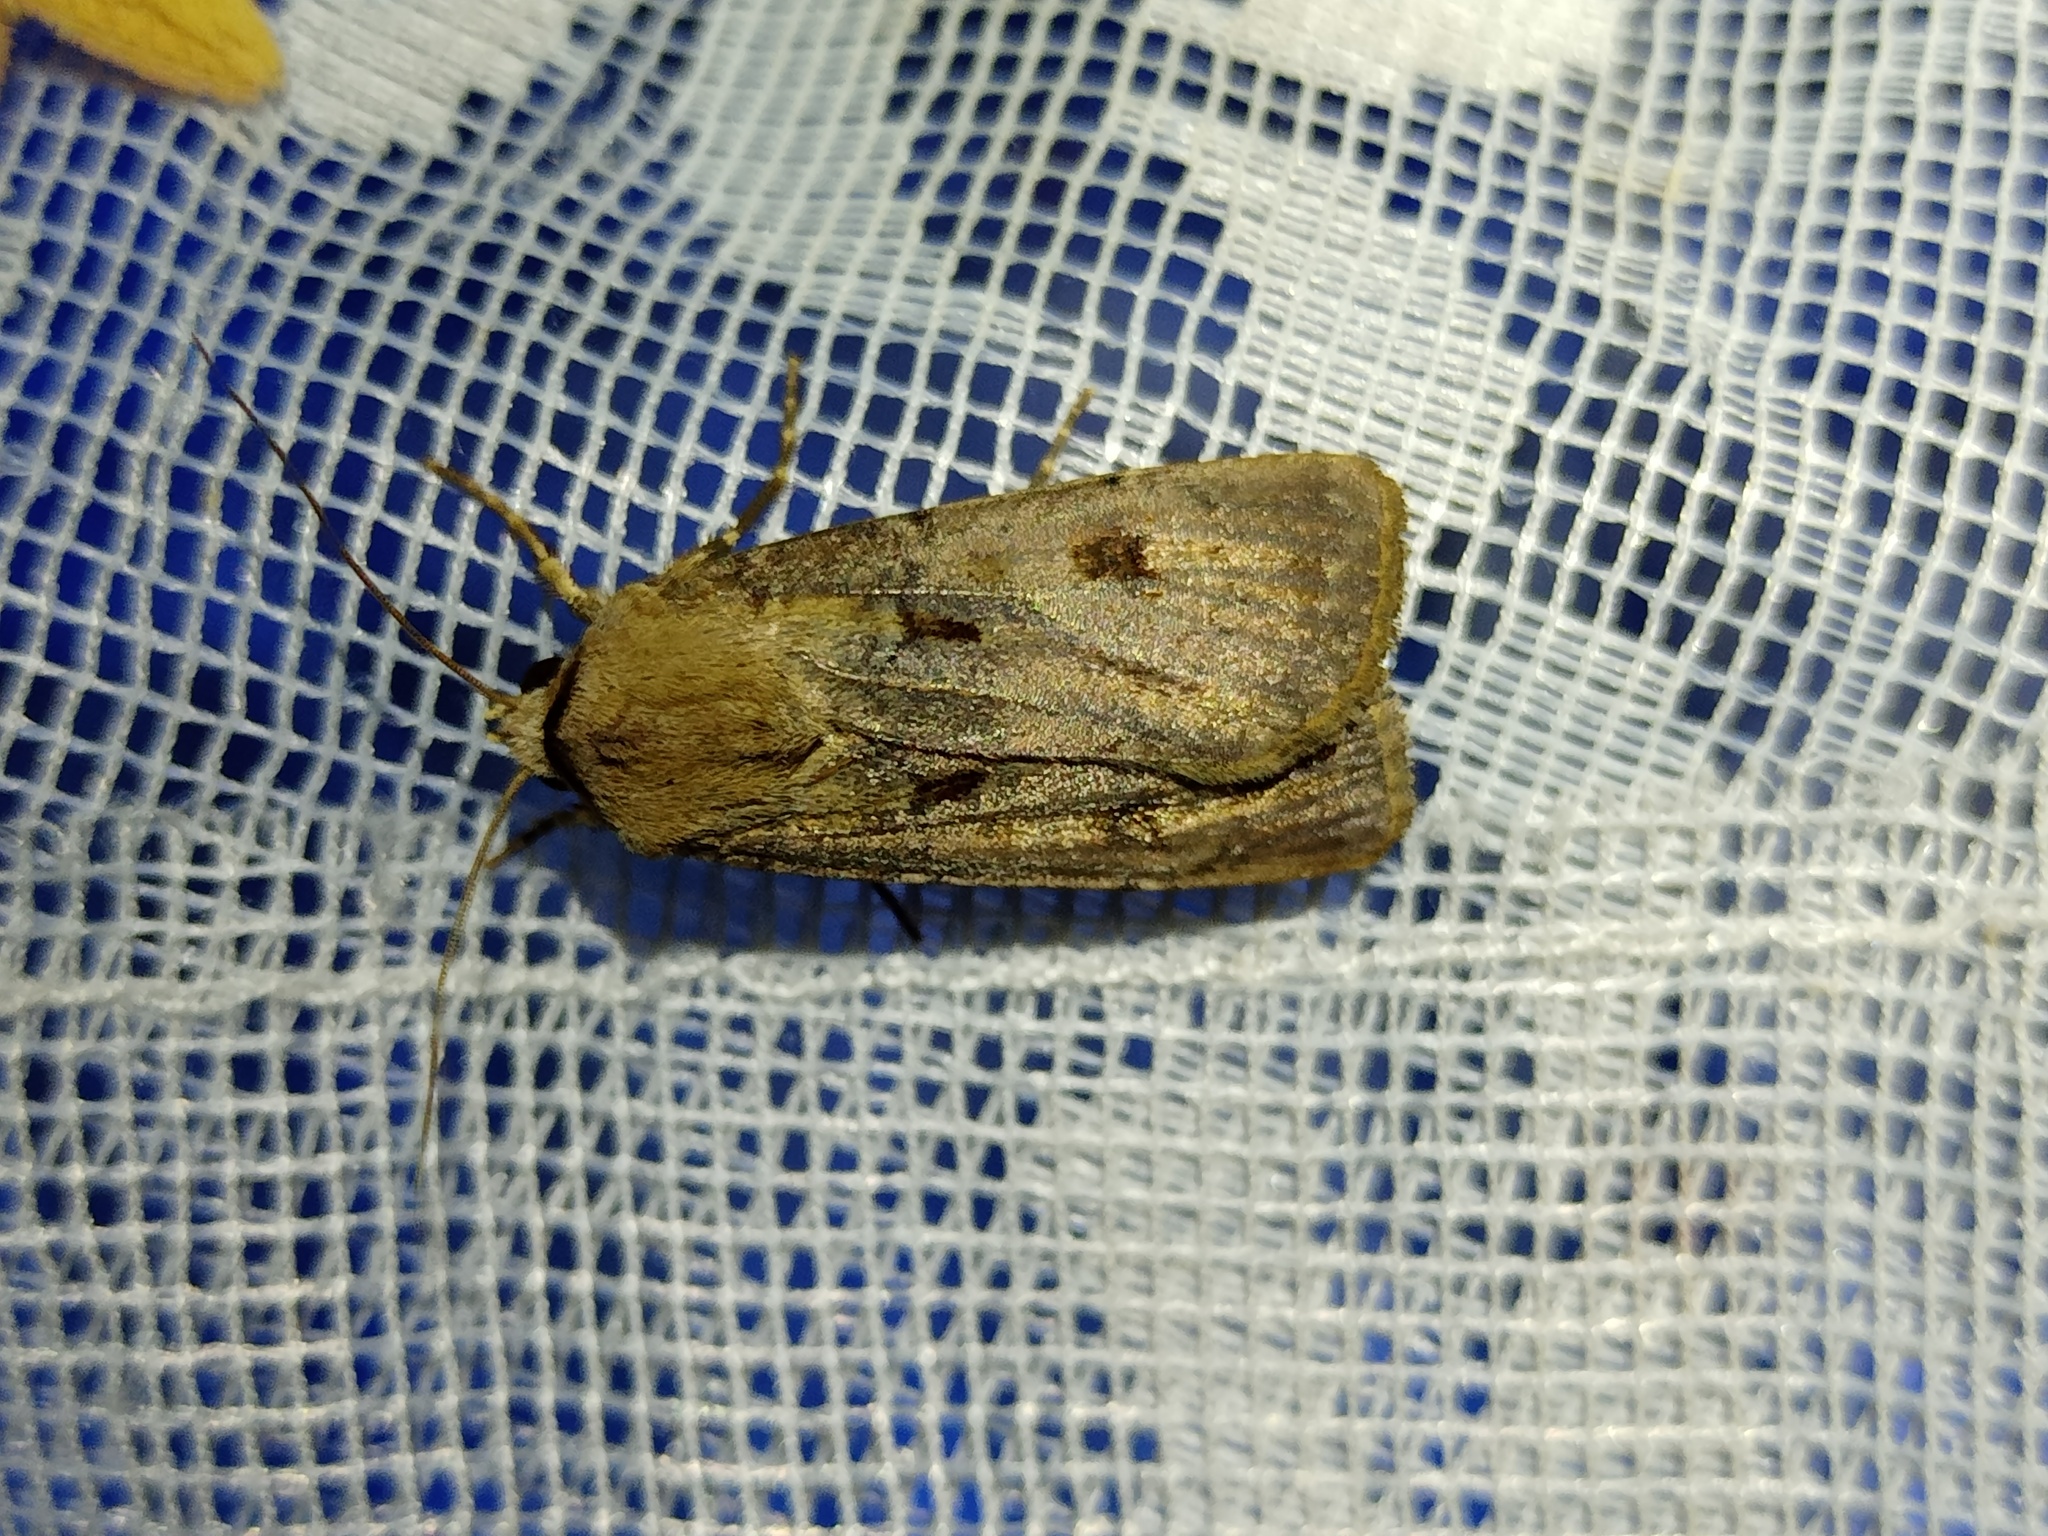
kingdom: Animalia
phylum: Arthropoda
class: Insecta
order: Lepidoptera
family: Noctuidae
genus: Agrotis
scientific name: Agrotis exclamationis
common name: Heart and dart
